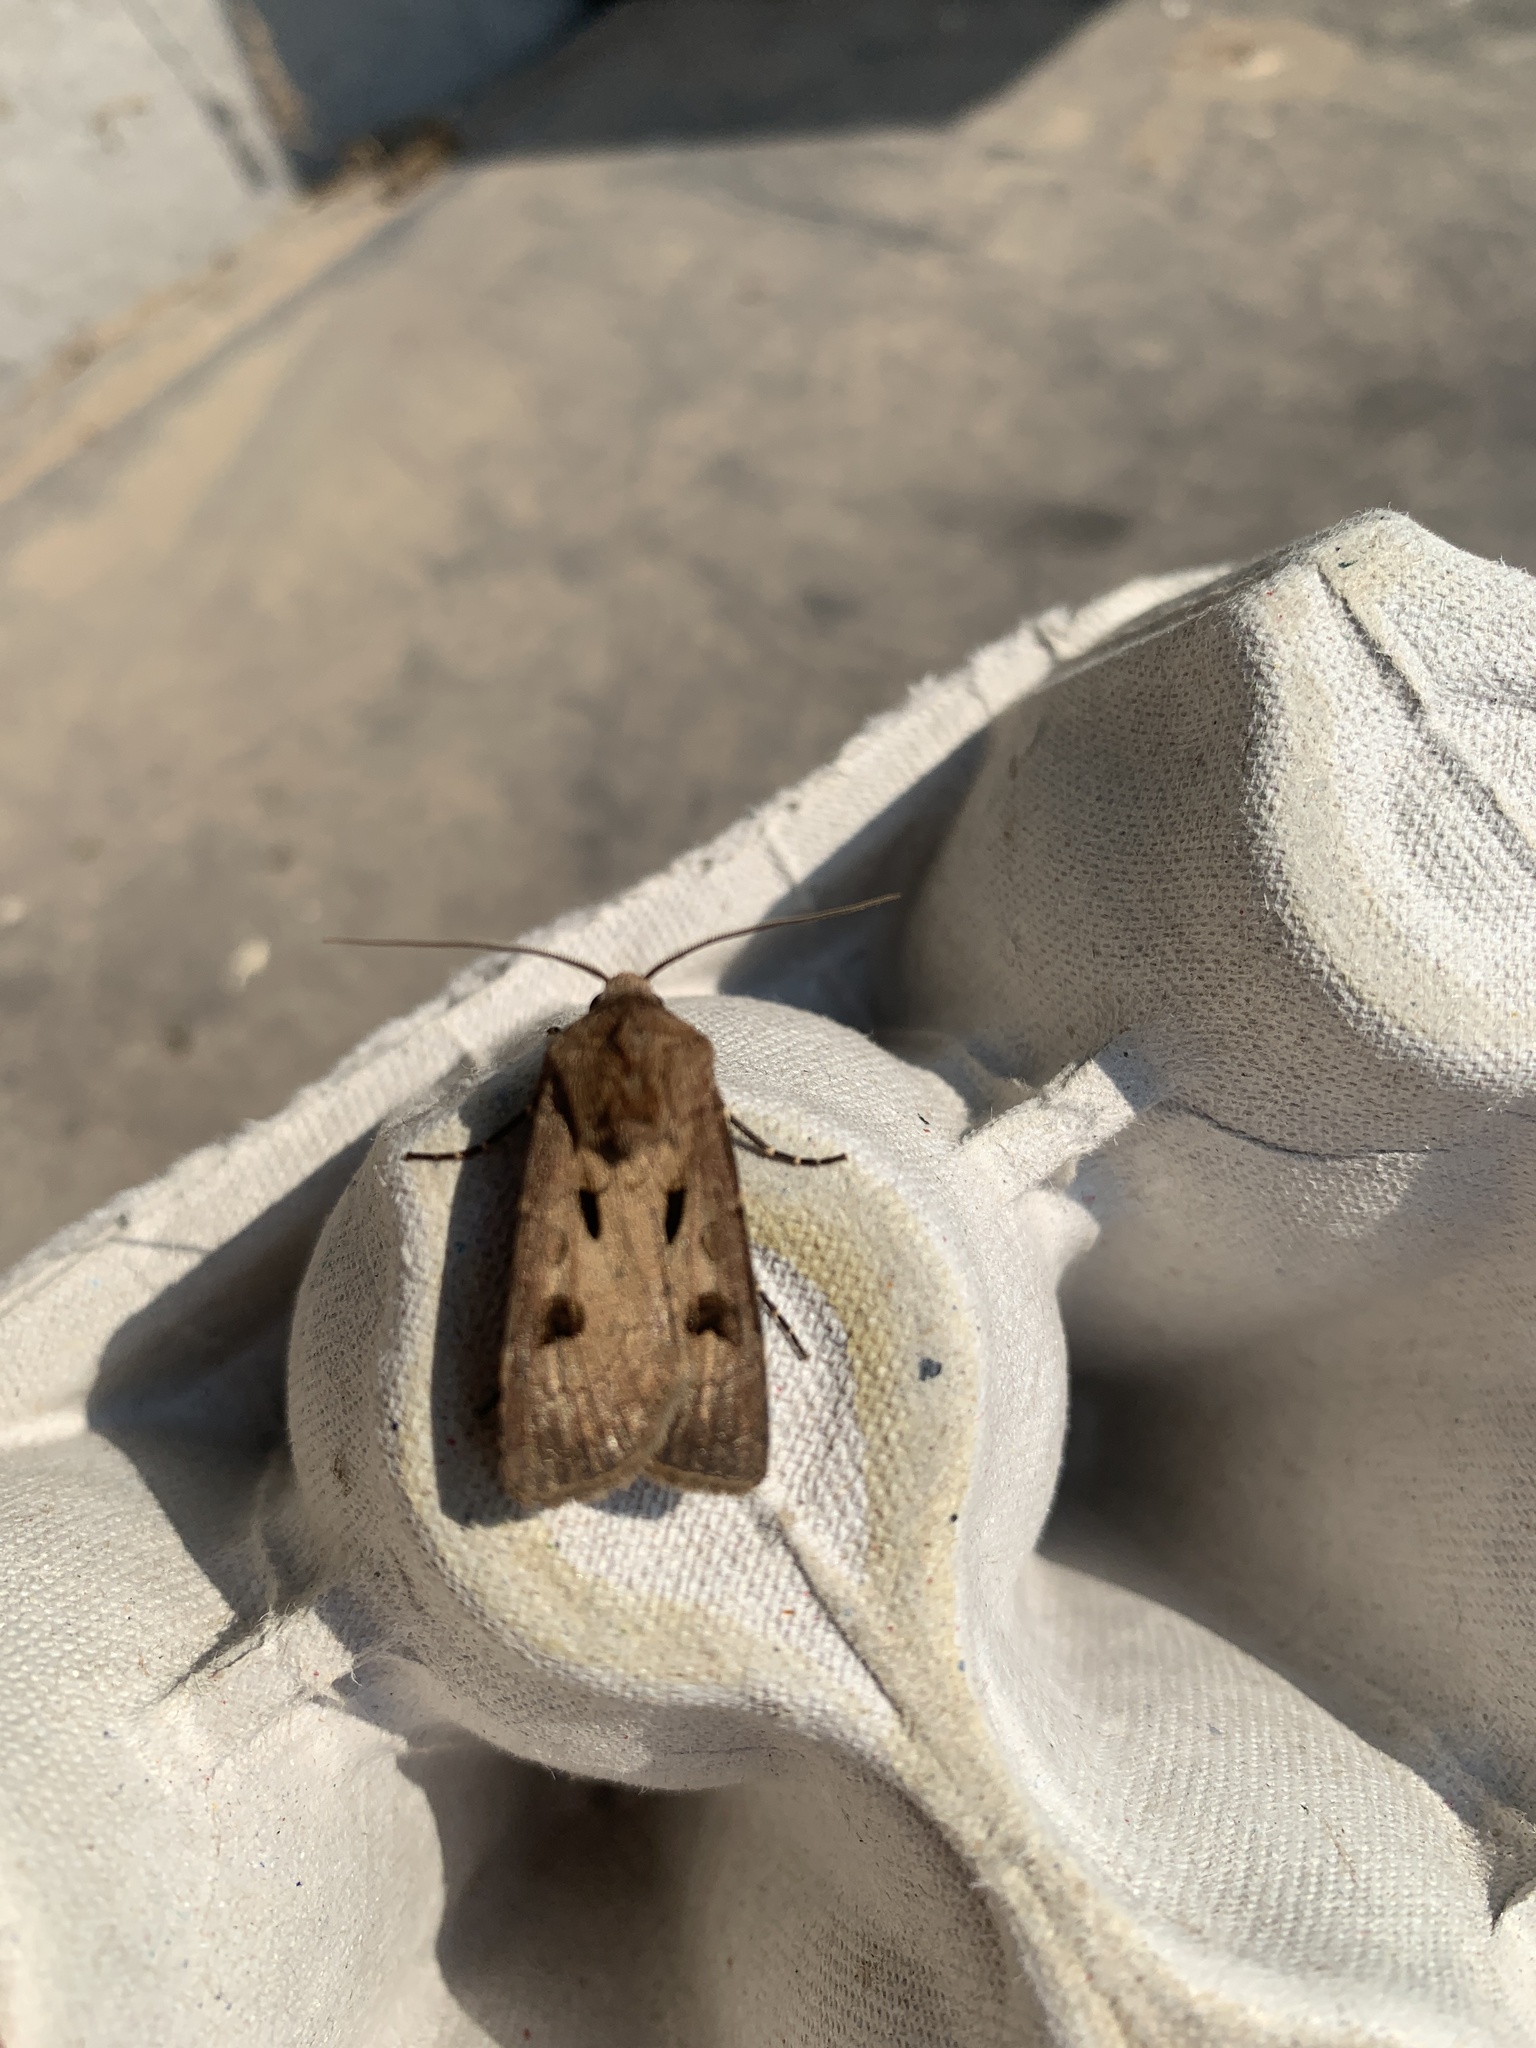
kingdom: Animalia
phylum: Arthropoda
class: Insecta
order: Lepidoptera
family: Noctuidae
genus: Agrotis
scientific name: Agrotis exclamationis
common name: Heart and dart
